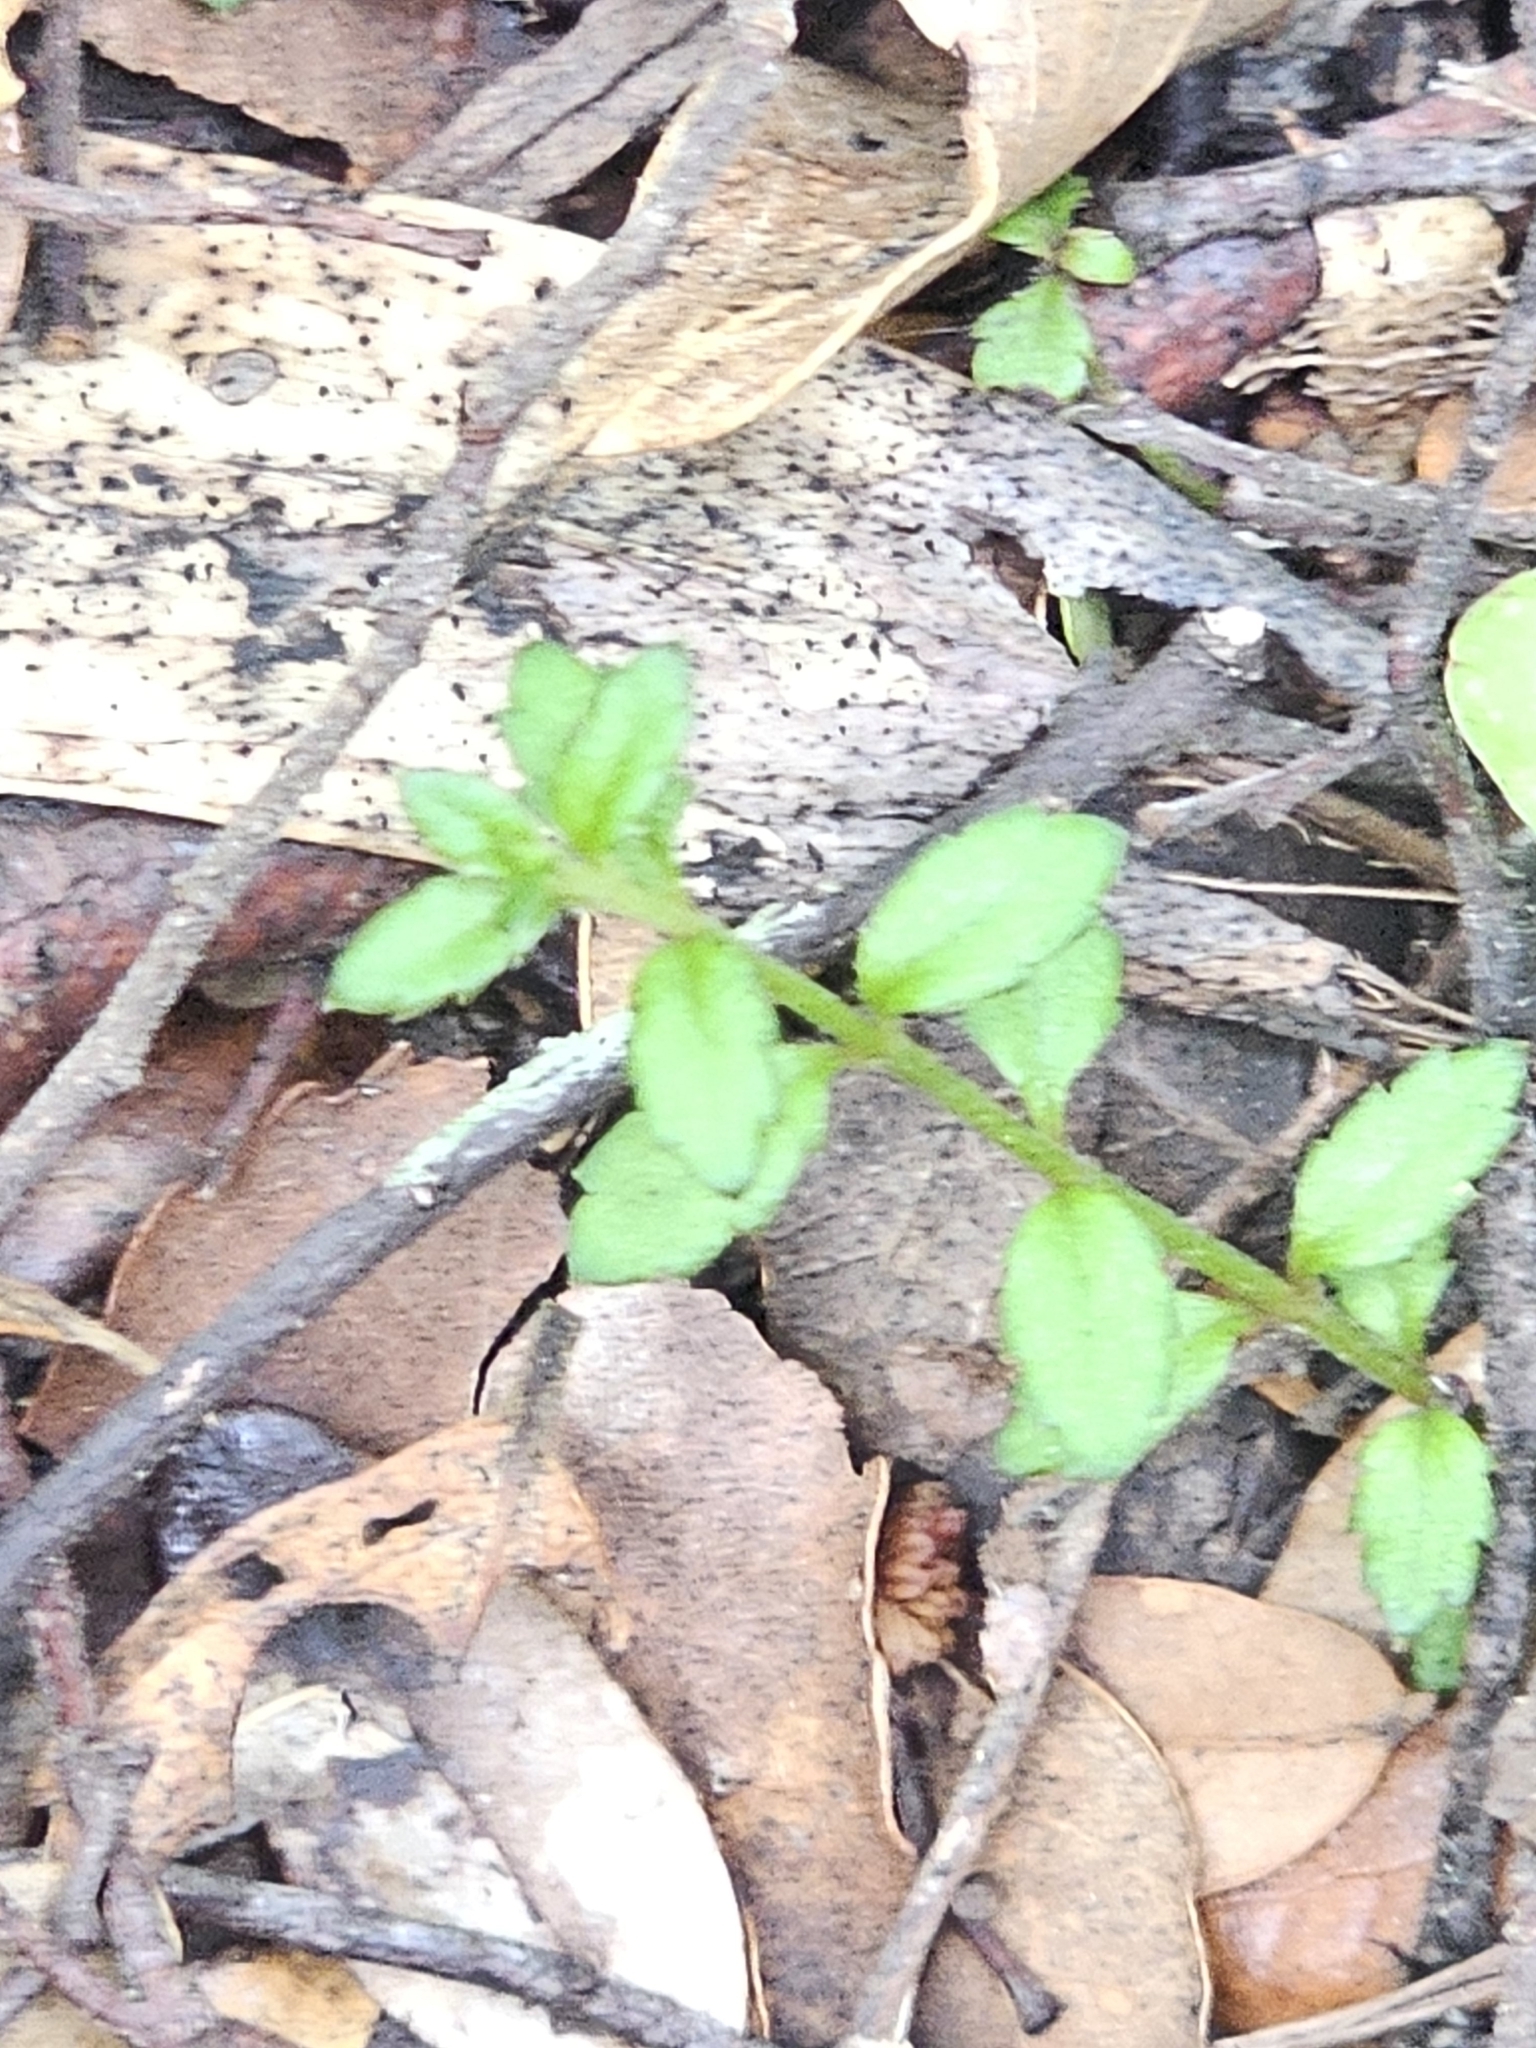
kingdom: Plantae
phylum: Tracheophyta
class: Magnoliopsida
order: Saxifragales
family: Haloragaceae
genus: Gonocarpus
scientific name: Gonocarpus incanus
